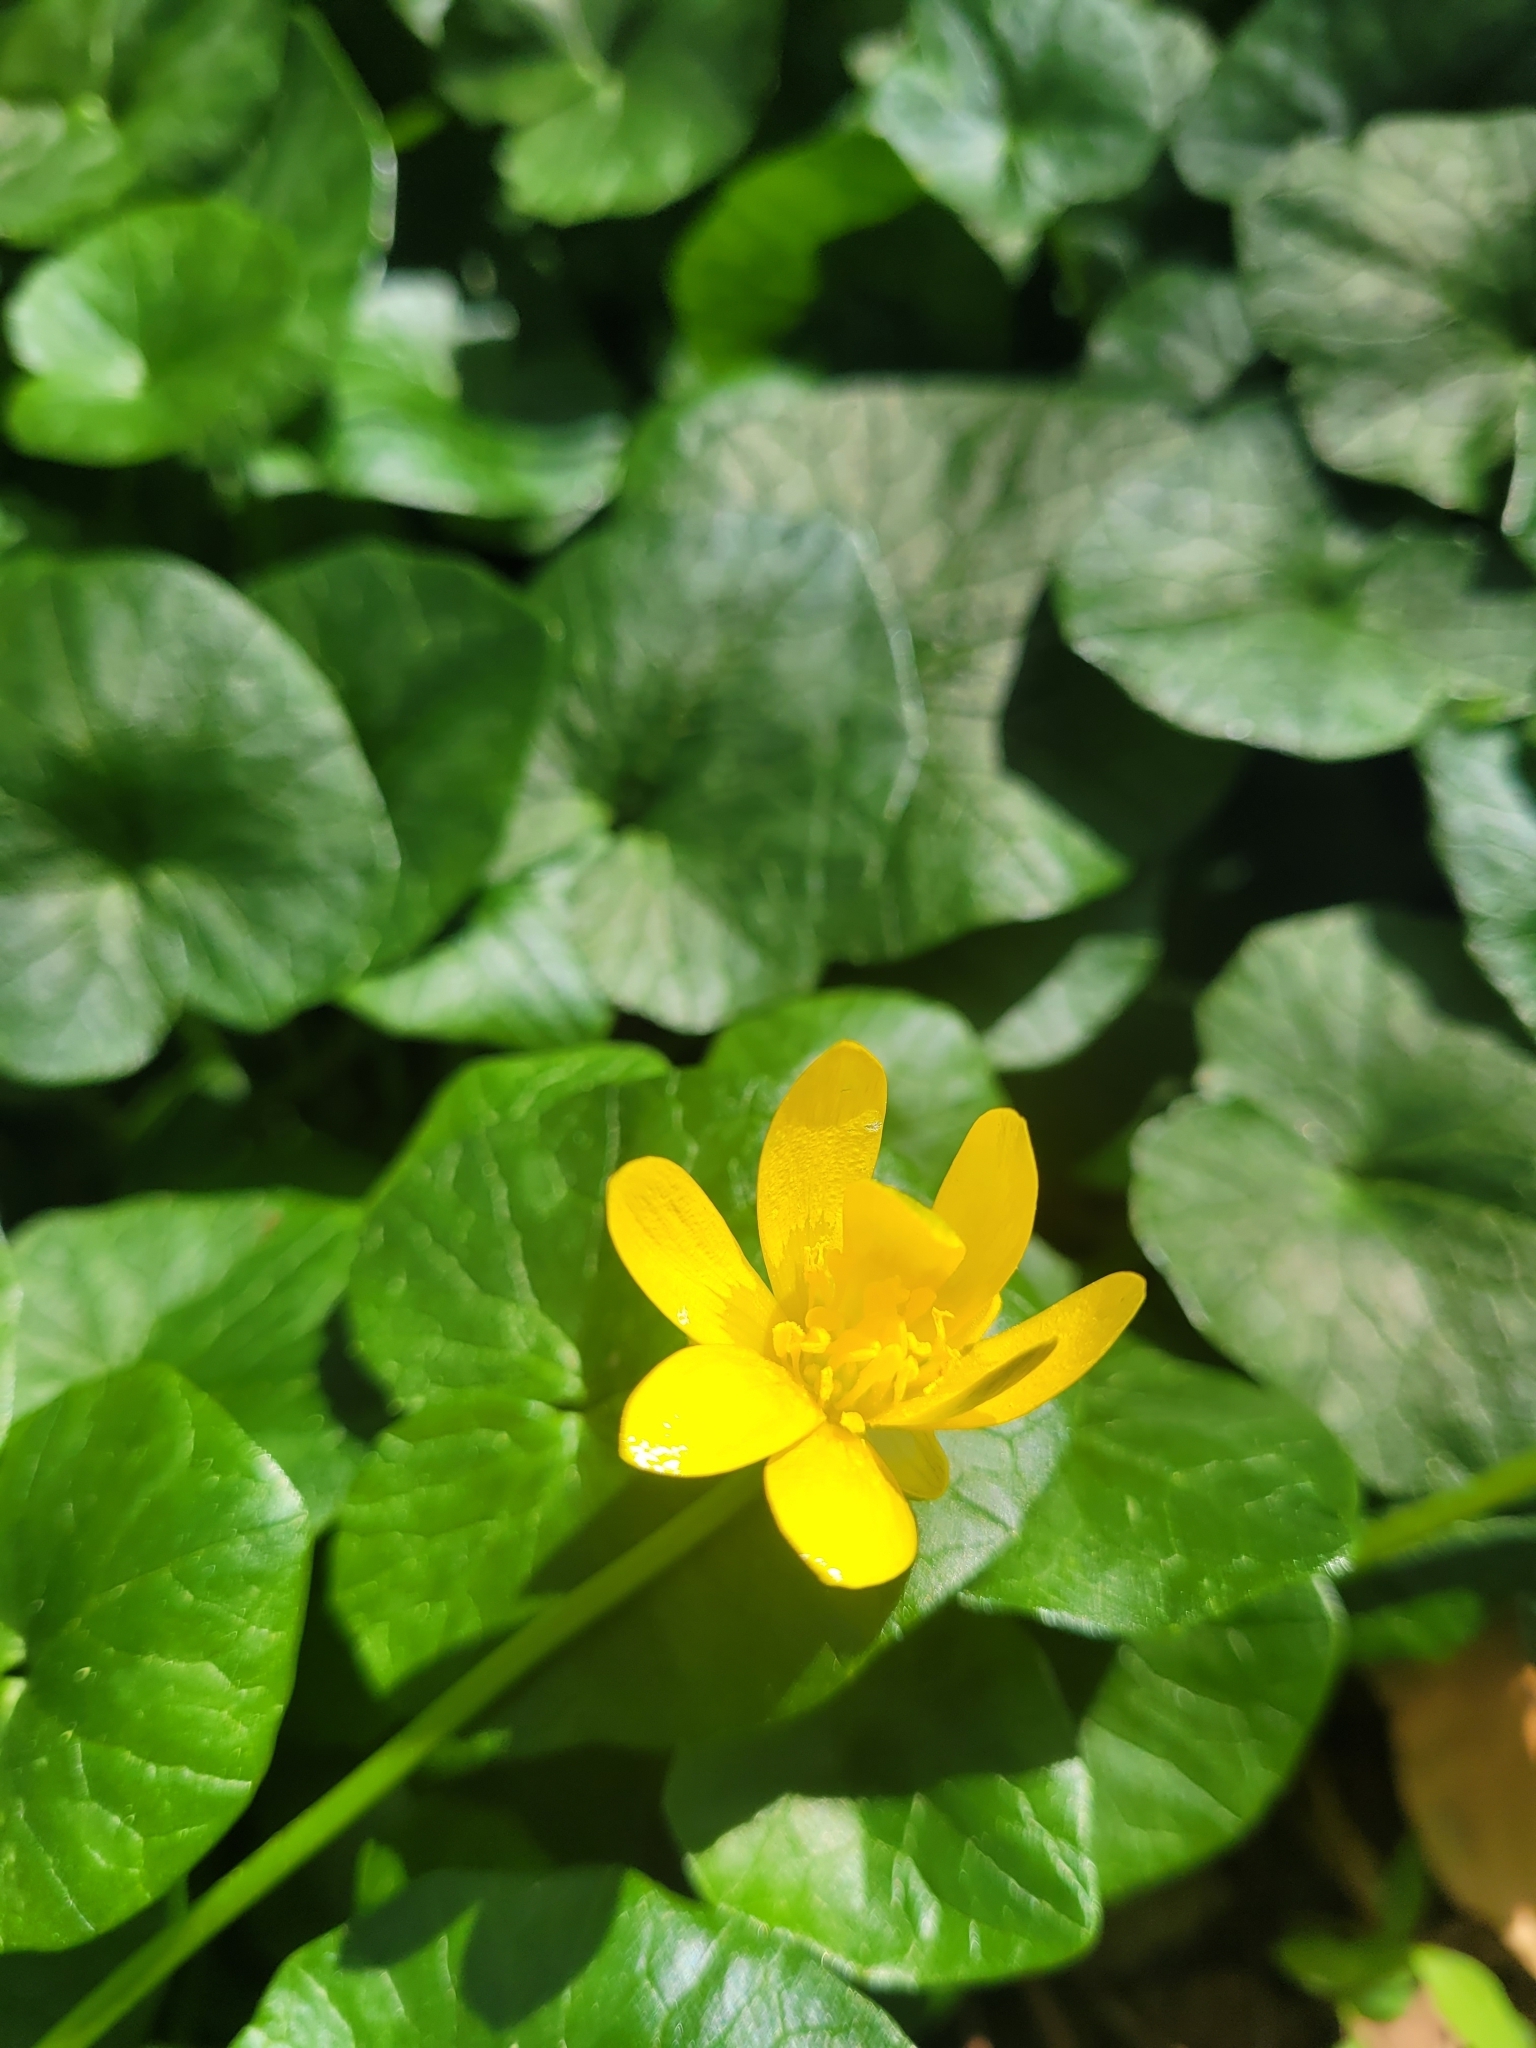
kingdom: Plantae
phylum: Tracheophyta
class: Magnoliopsida
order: Ranunculales
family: Ranunculaceae
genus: Ficaria
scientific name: Ficaria verna
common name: Lesser celandine
